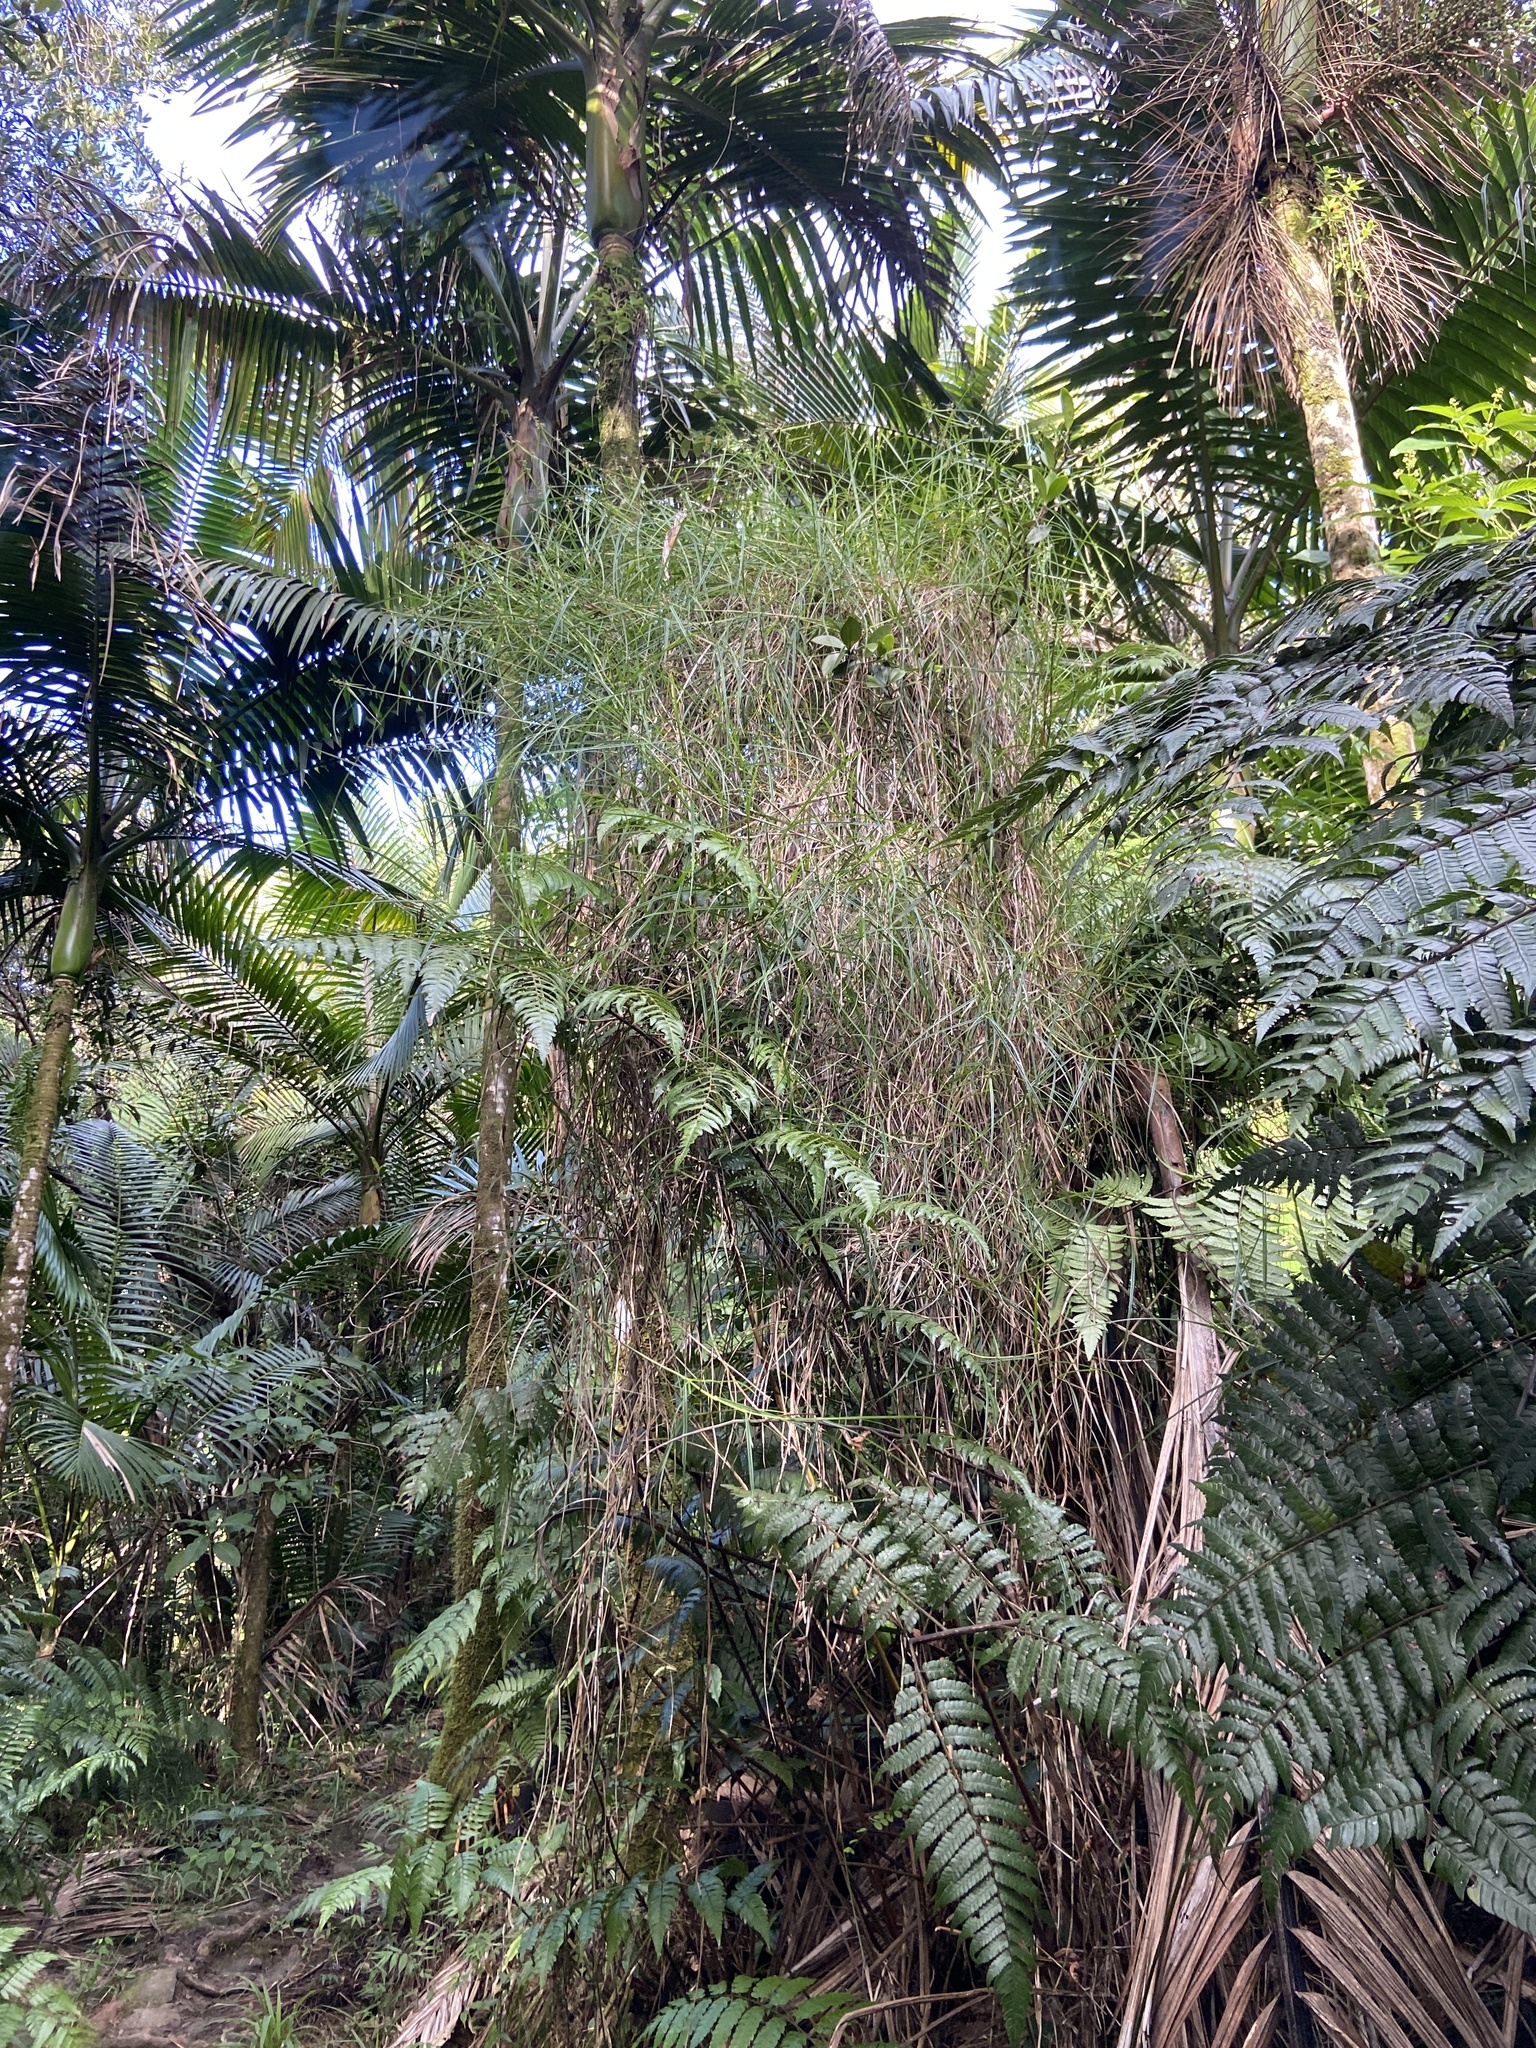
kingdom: Plantae
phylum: Tracheophyta
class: Liliopsida
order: Poales
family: Cyperaceae
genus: Scleria
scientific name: Scleria secans
